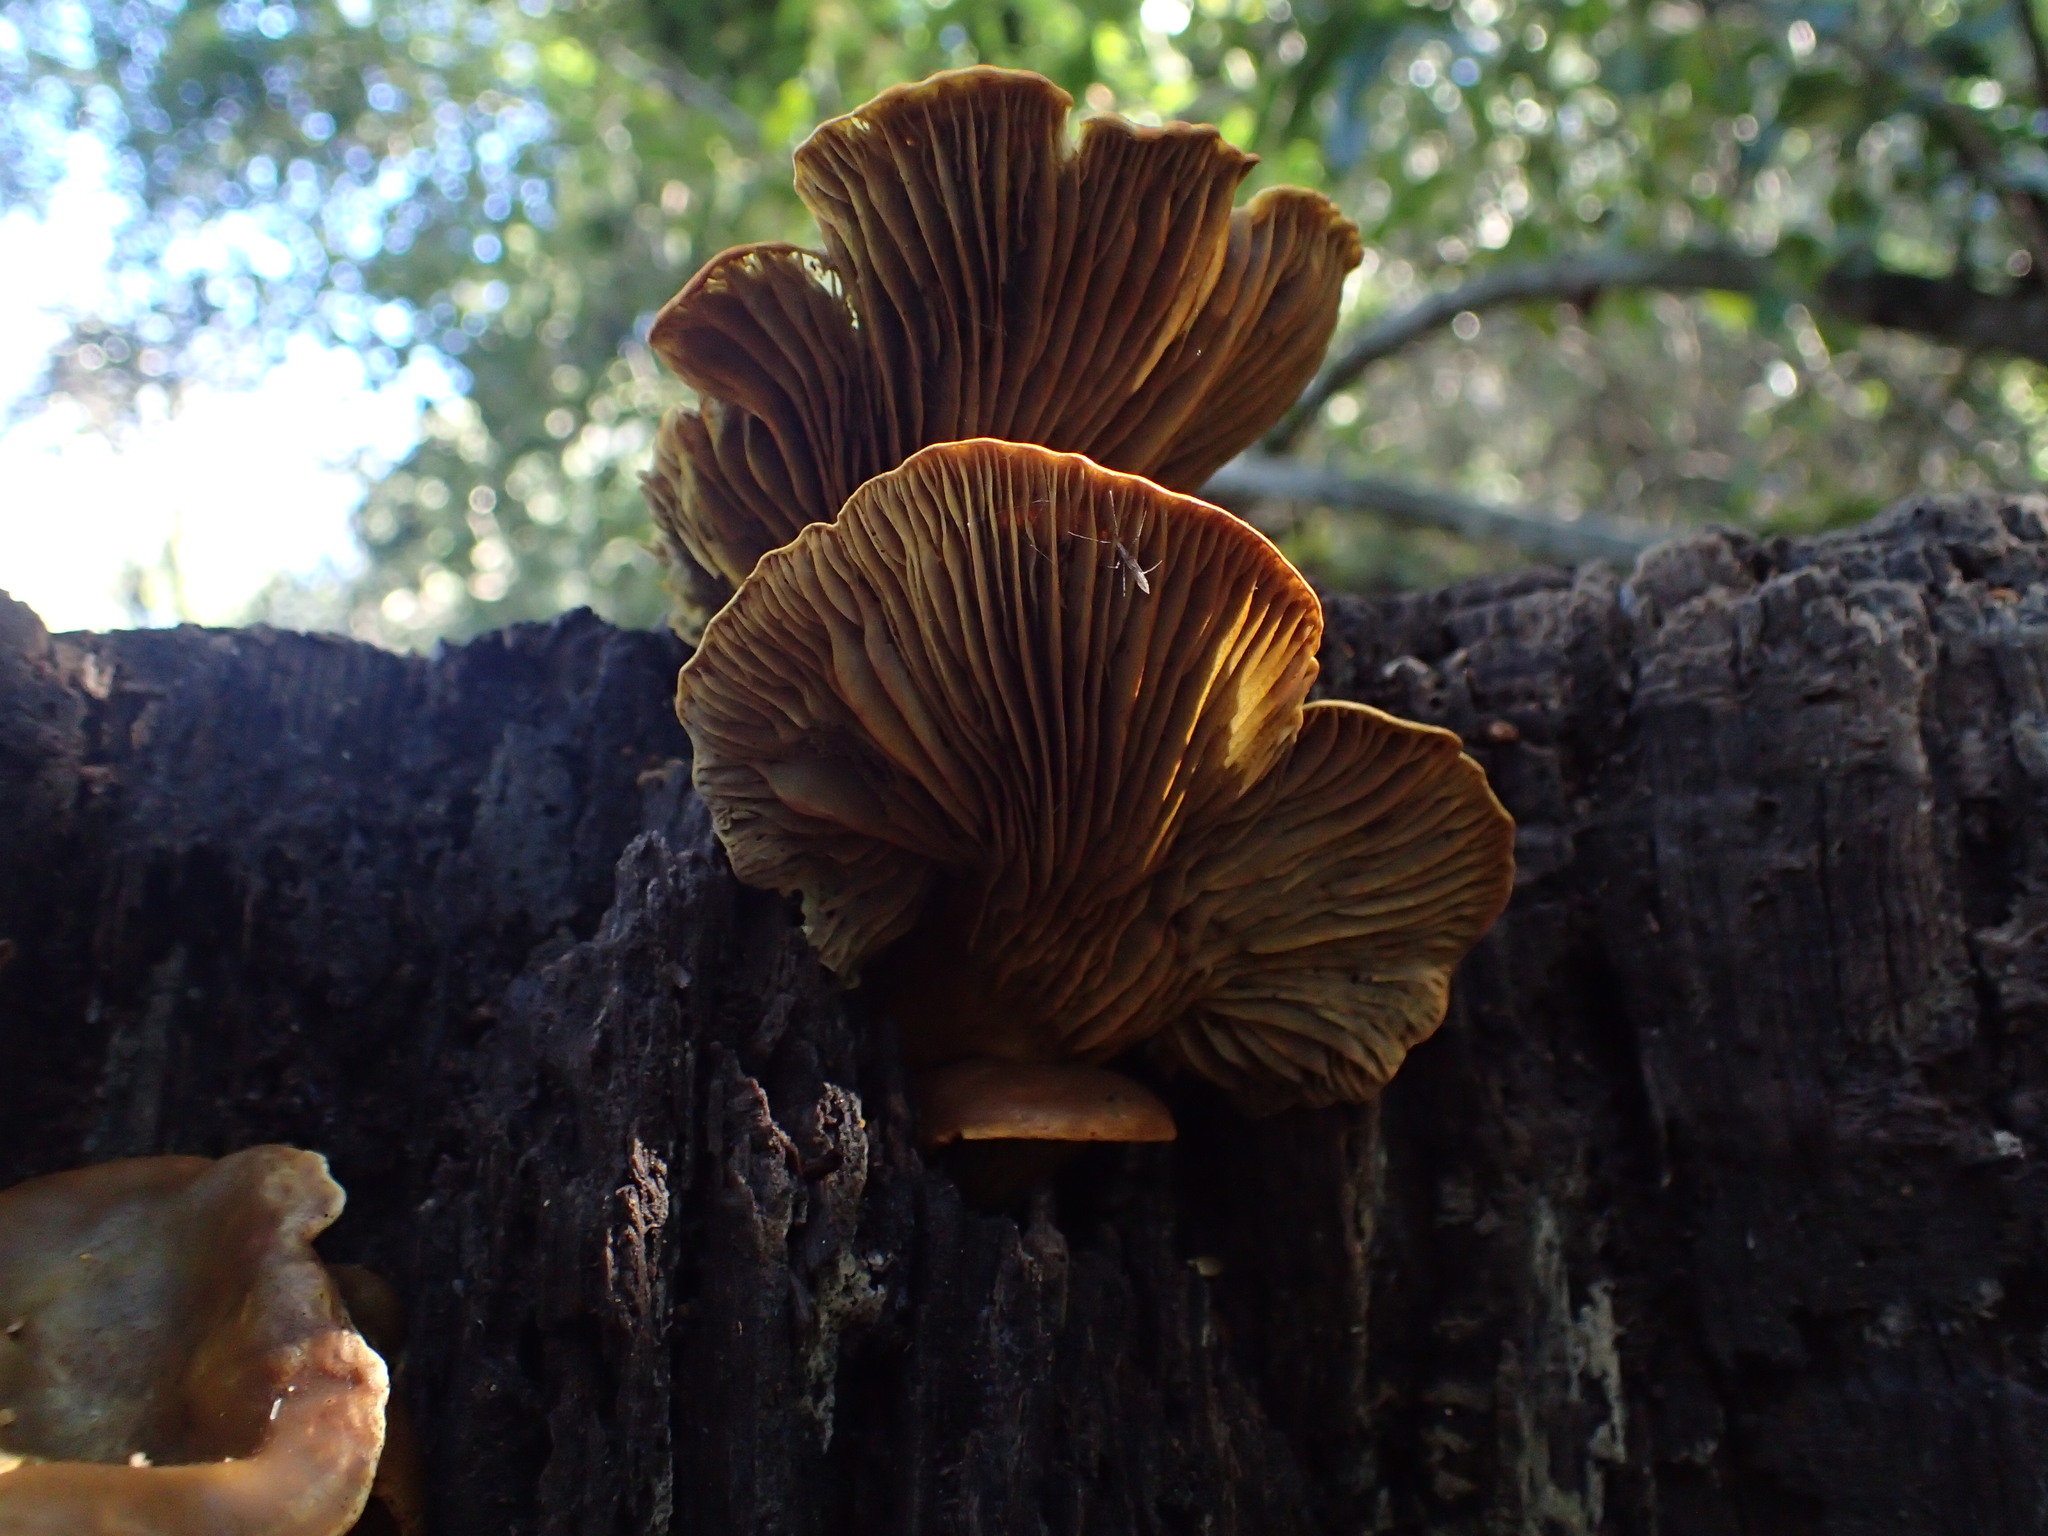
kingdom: Fungi
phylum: Basidiomycota
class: Agaricomycetes
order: Agaricales
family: Omphalotaceae
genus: Omphalotus
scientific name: Omphalotus olivascens
